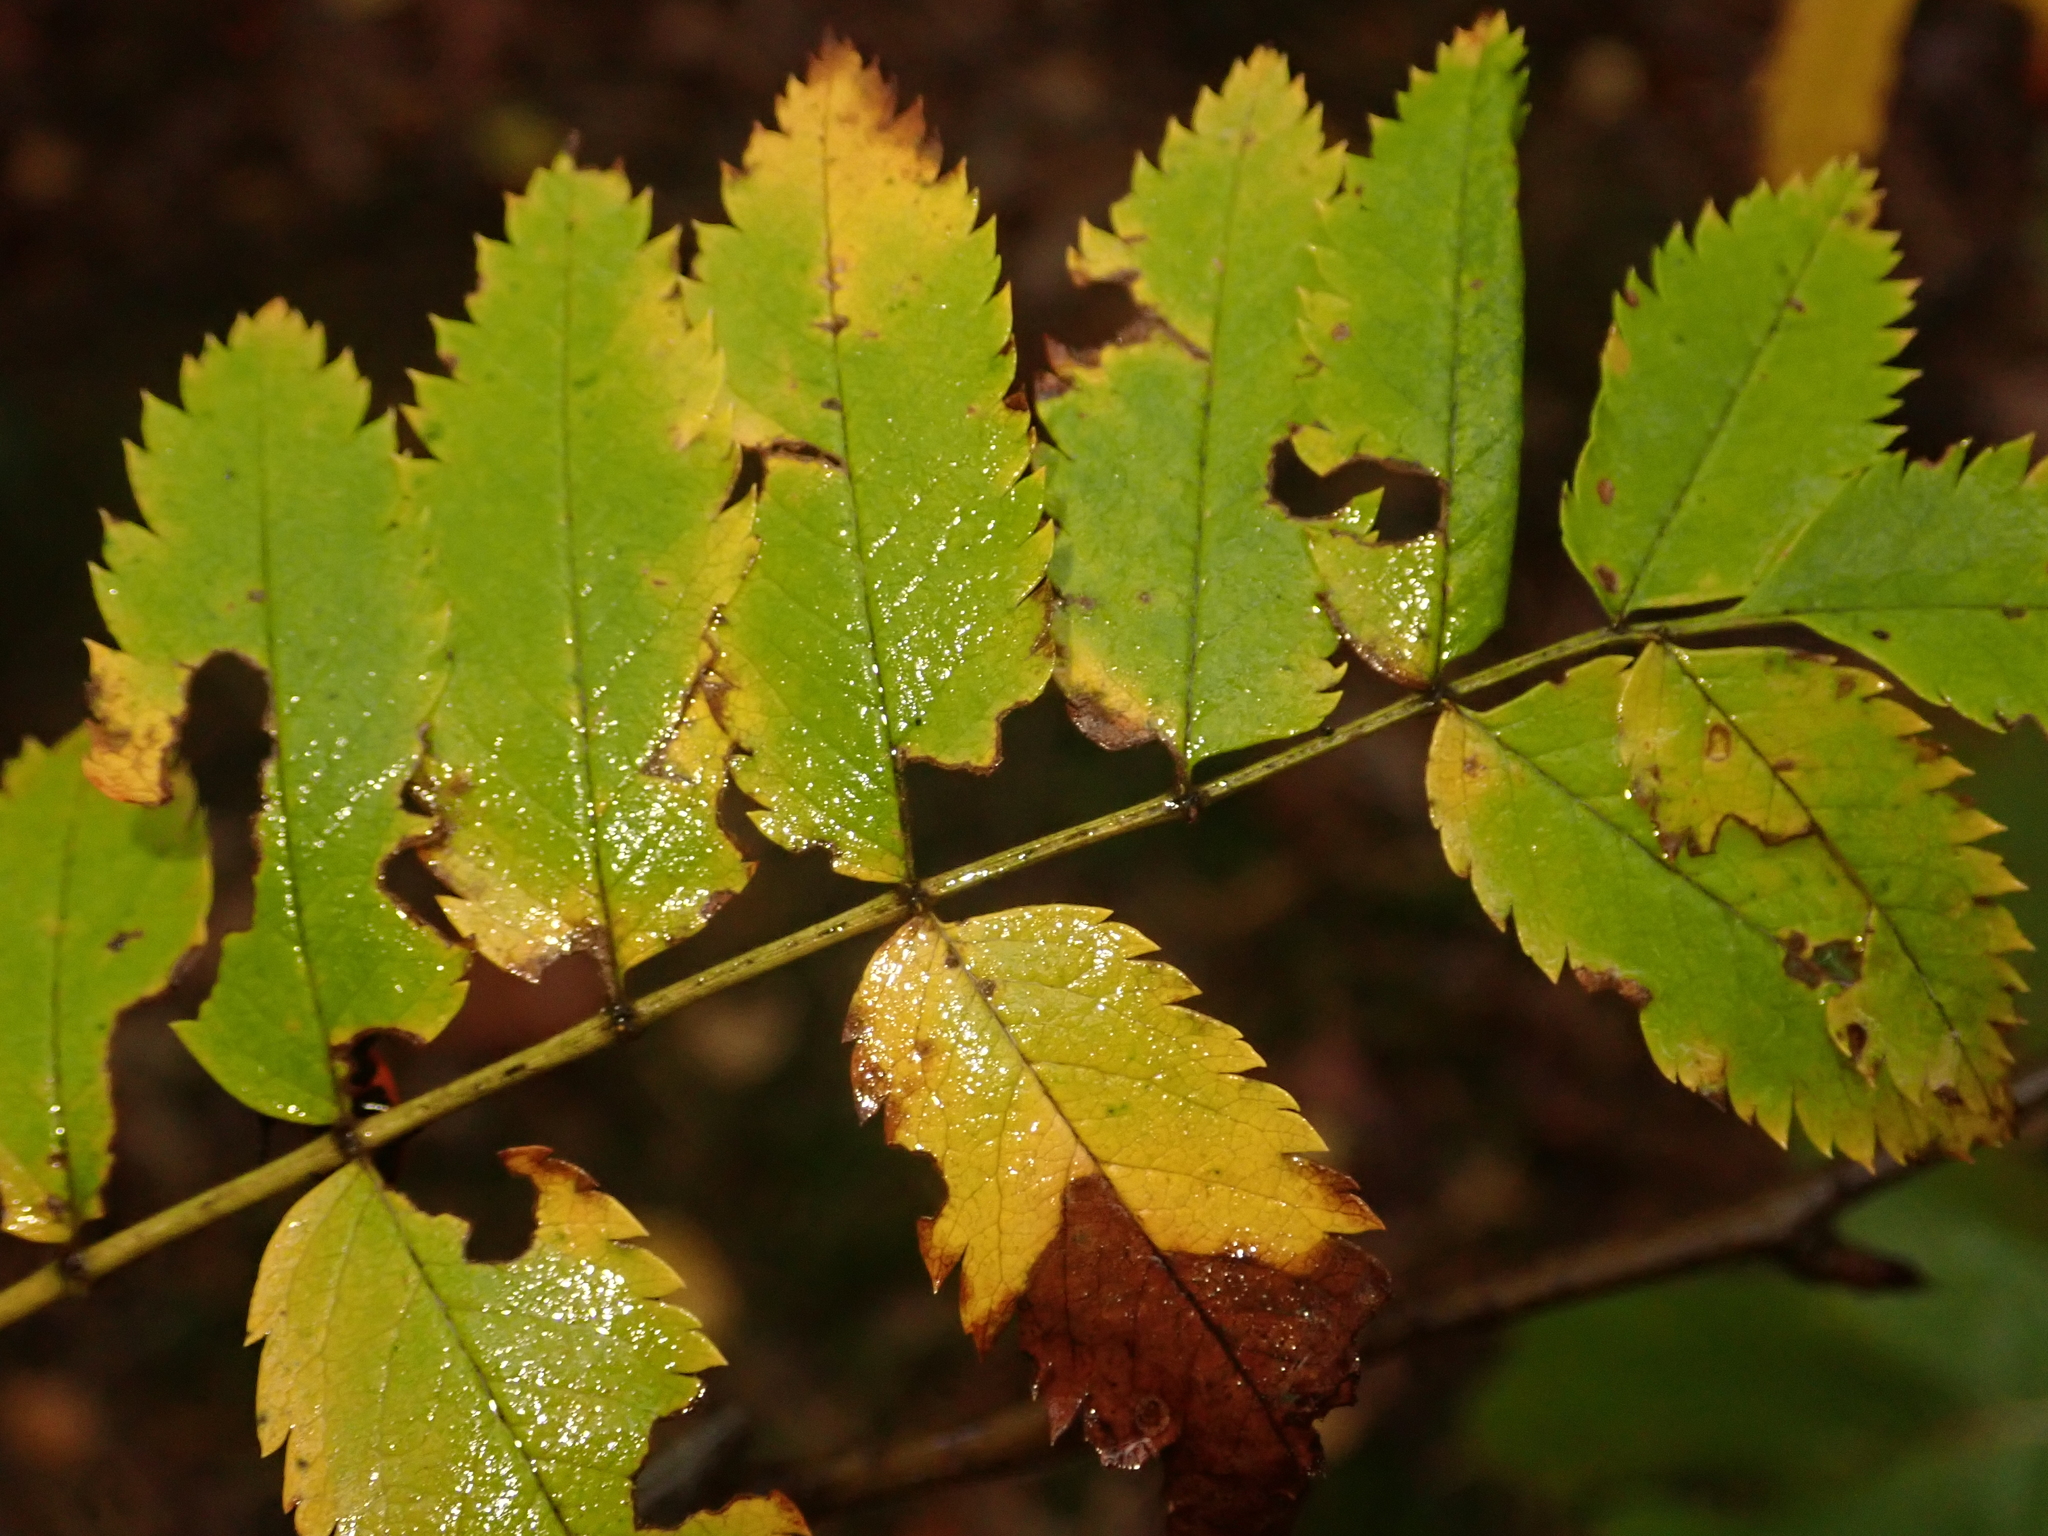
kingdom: Plantae
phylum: Tracheophyta
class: Magnoliopsida
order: Rosales
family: Rosaceae
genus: Sorbus
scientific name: Sorbus aucuparia
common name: Rowan
